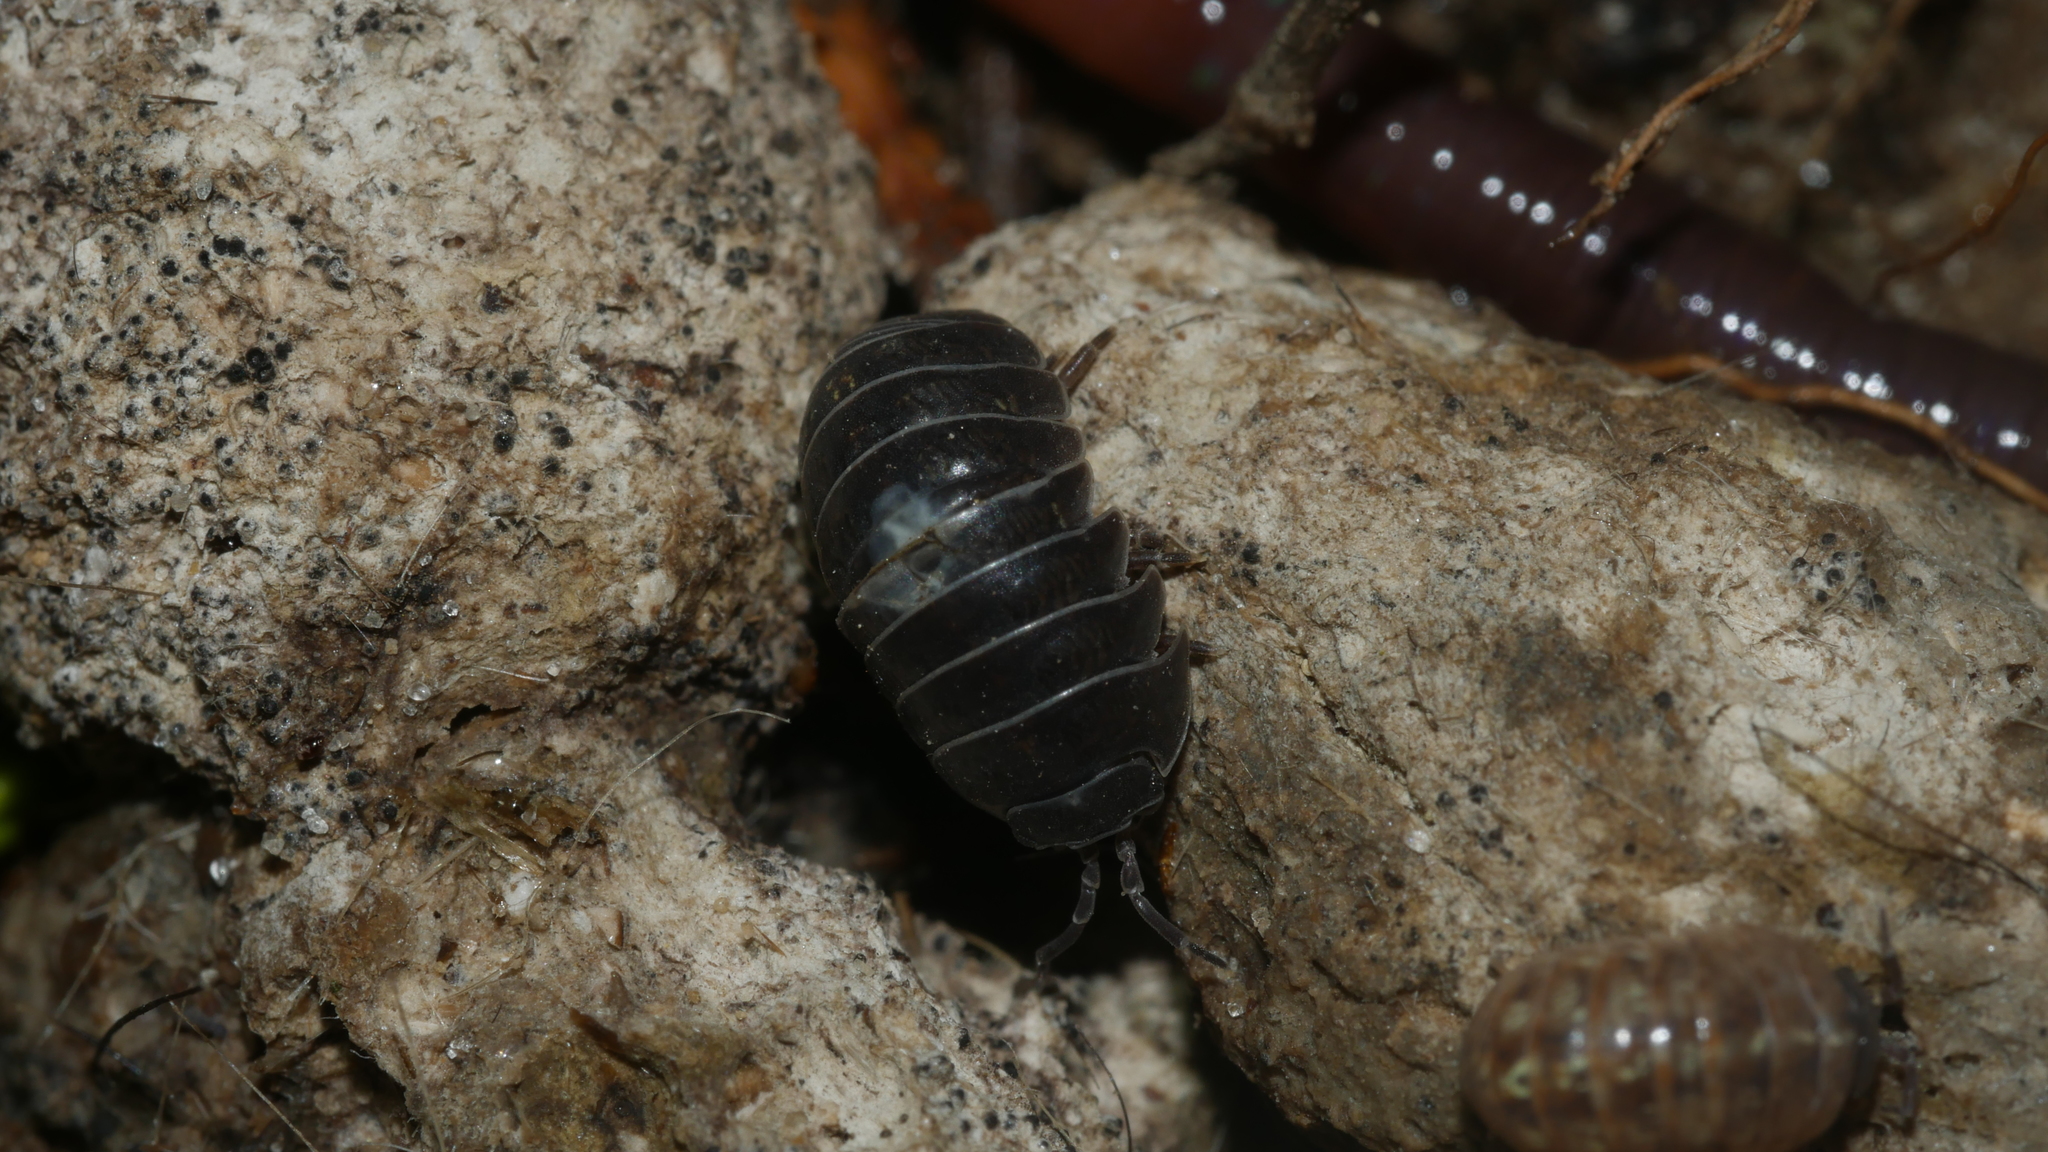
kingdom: Animalia
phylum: Arthropoda
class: Malacostraca
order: Isopoda
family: Armadillidiidae
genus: Armadillidium
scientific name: Armadillidium vulgare
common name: Common pill woodlouse
